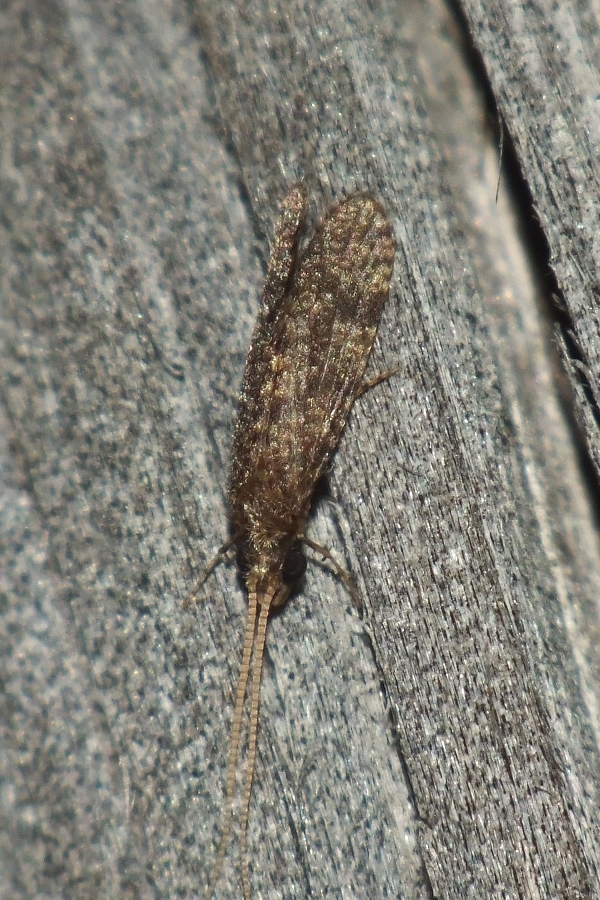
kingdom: Animalia
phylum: Arthropoda
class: Insecta
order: Trichoptera
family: Ecnomidae
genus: Ecnomus
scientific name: Ecnomus tenellus
